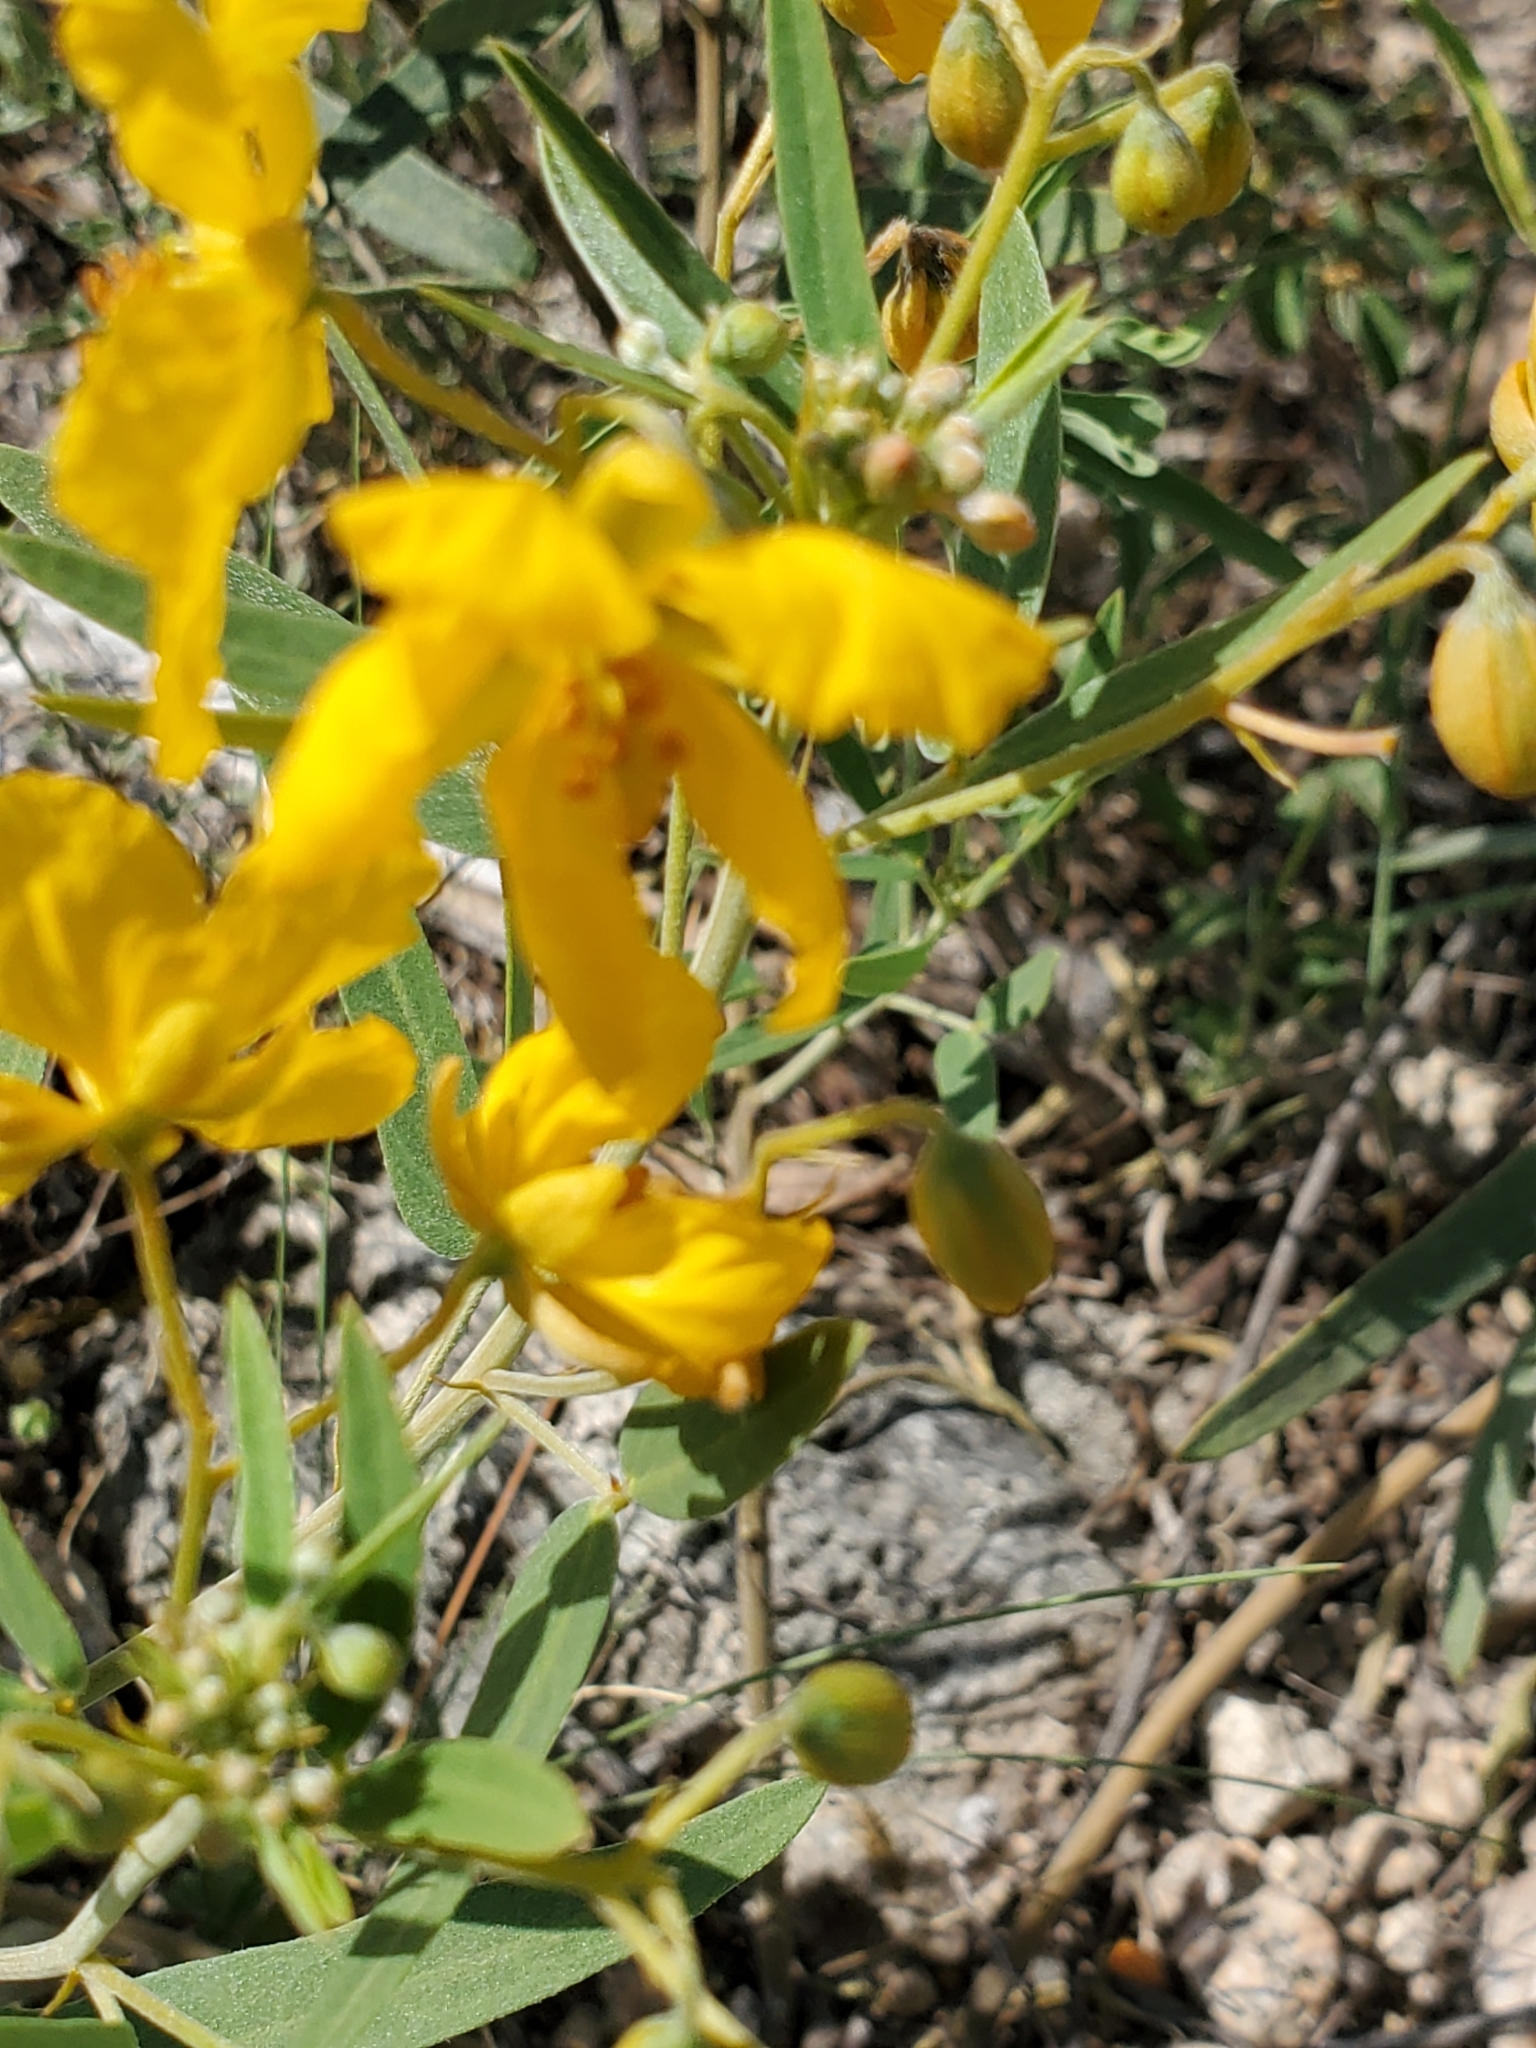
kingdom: Plantae
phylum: Tracheophyta
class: Magnoliopsida
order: Fabales
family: Fabaceae
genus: Senna
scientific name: Senna roemeriana
